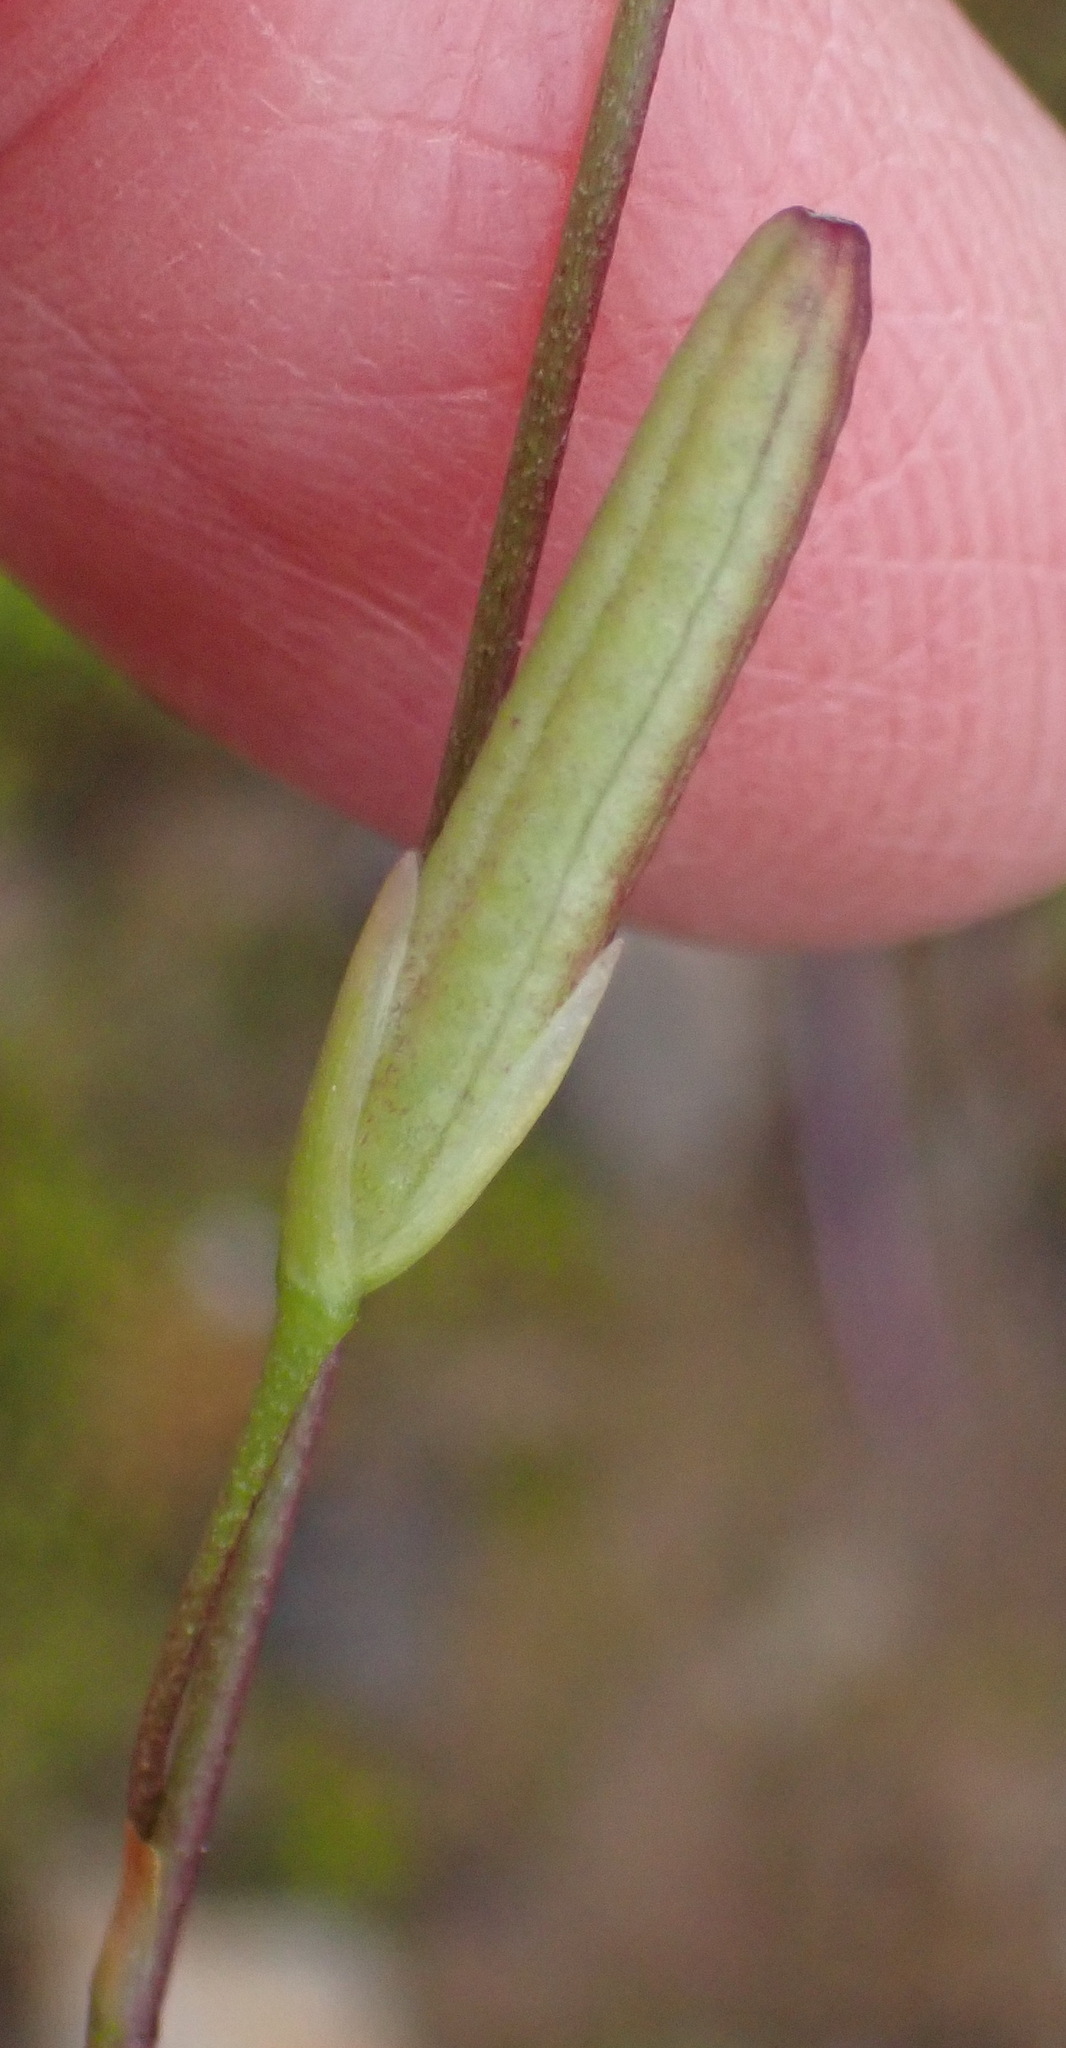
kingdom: Plantae
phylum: Tracheophyta
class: Liliopsida
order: Asparagales
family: Iridaceae
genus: Xenoscapa
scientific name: Xenoscapa fistulosa
